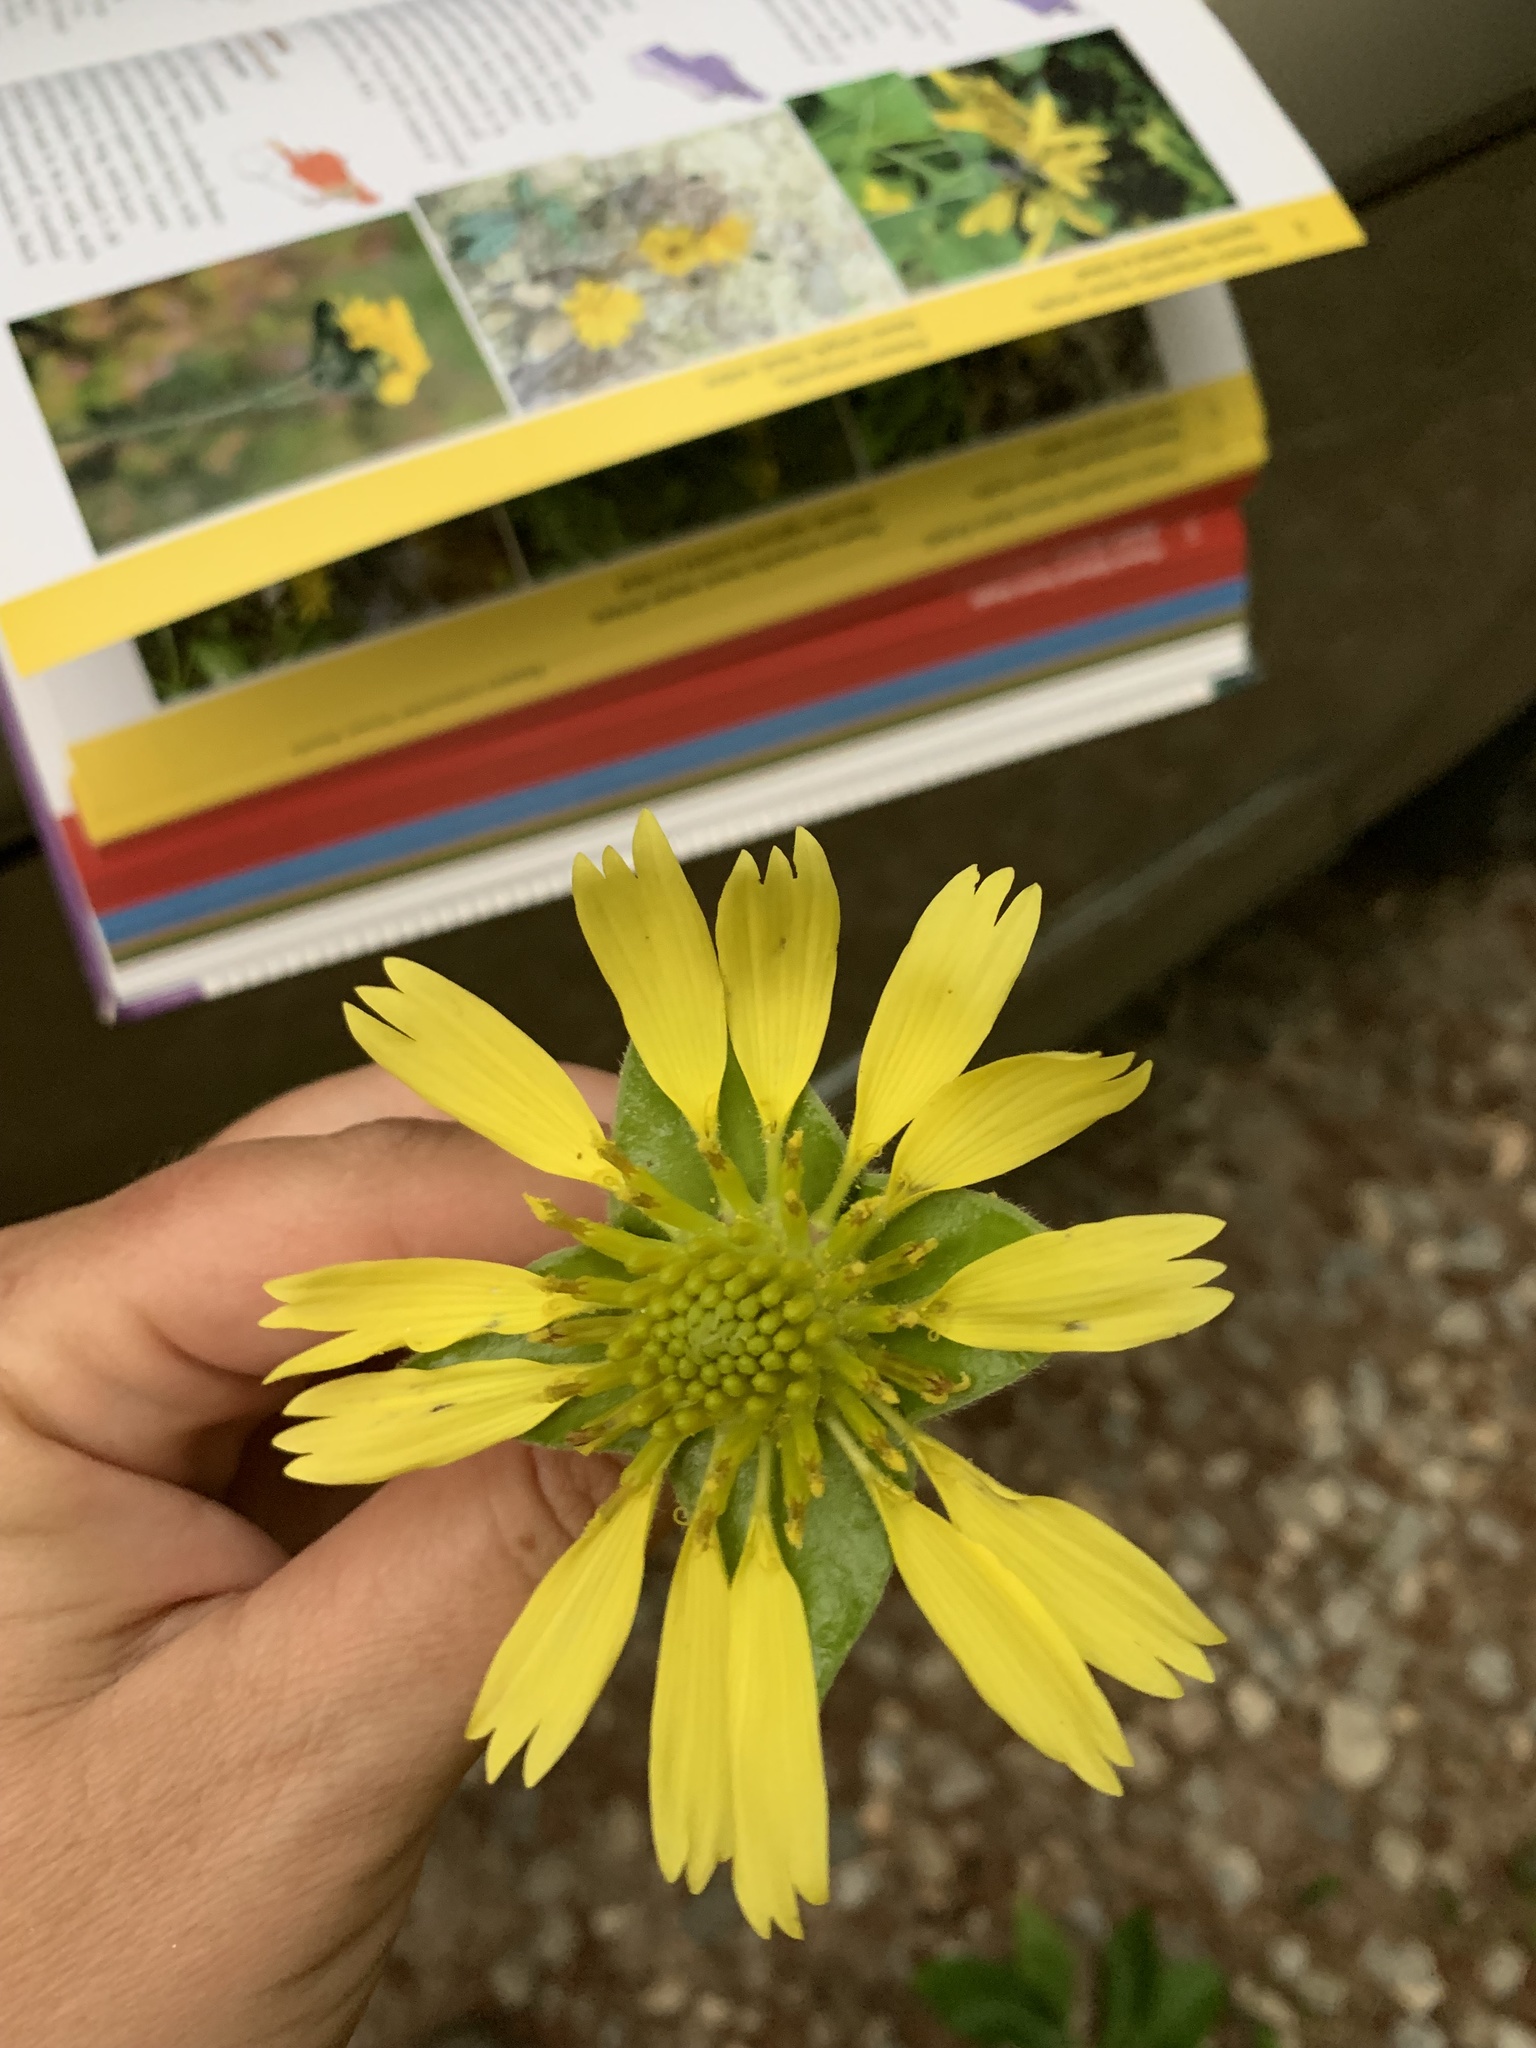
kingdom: Plantae
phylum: Tracheophyta
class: Magnoliopsida
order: Asterales
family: Asteraceae
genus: Tetragonotheca
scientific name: Tetragonotheca helianthoides
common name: Pineland-ginseng
